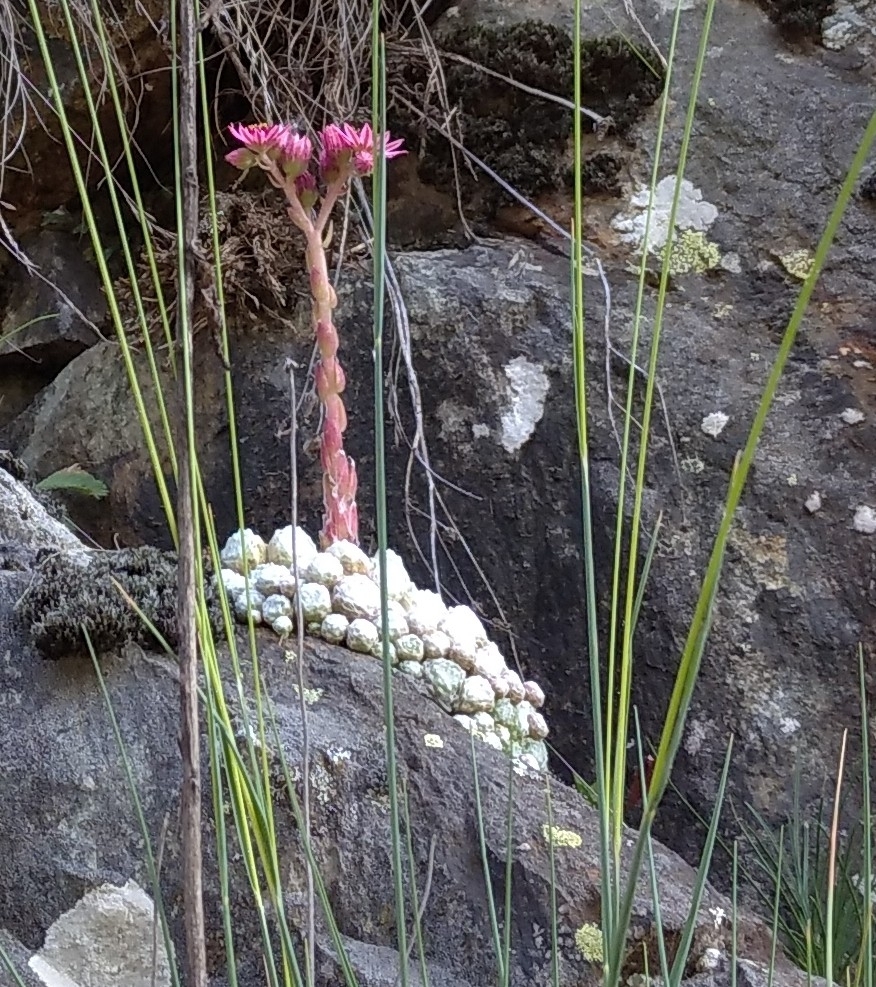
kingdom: Plantae
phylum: Tracheophyta
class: Magnoliopsida
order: Saxifragales
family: Crassulaceae
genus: Sempervivum
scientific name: Sempervivum arachnoideum
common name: Cobweb house-leek
